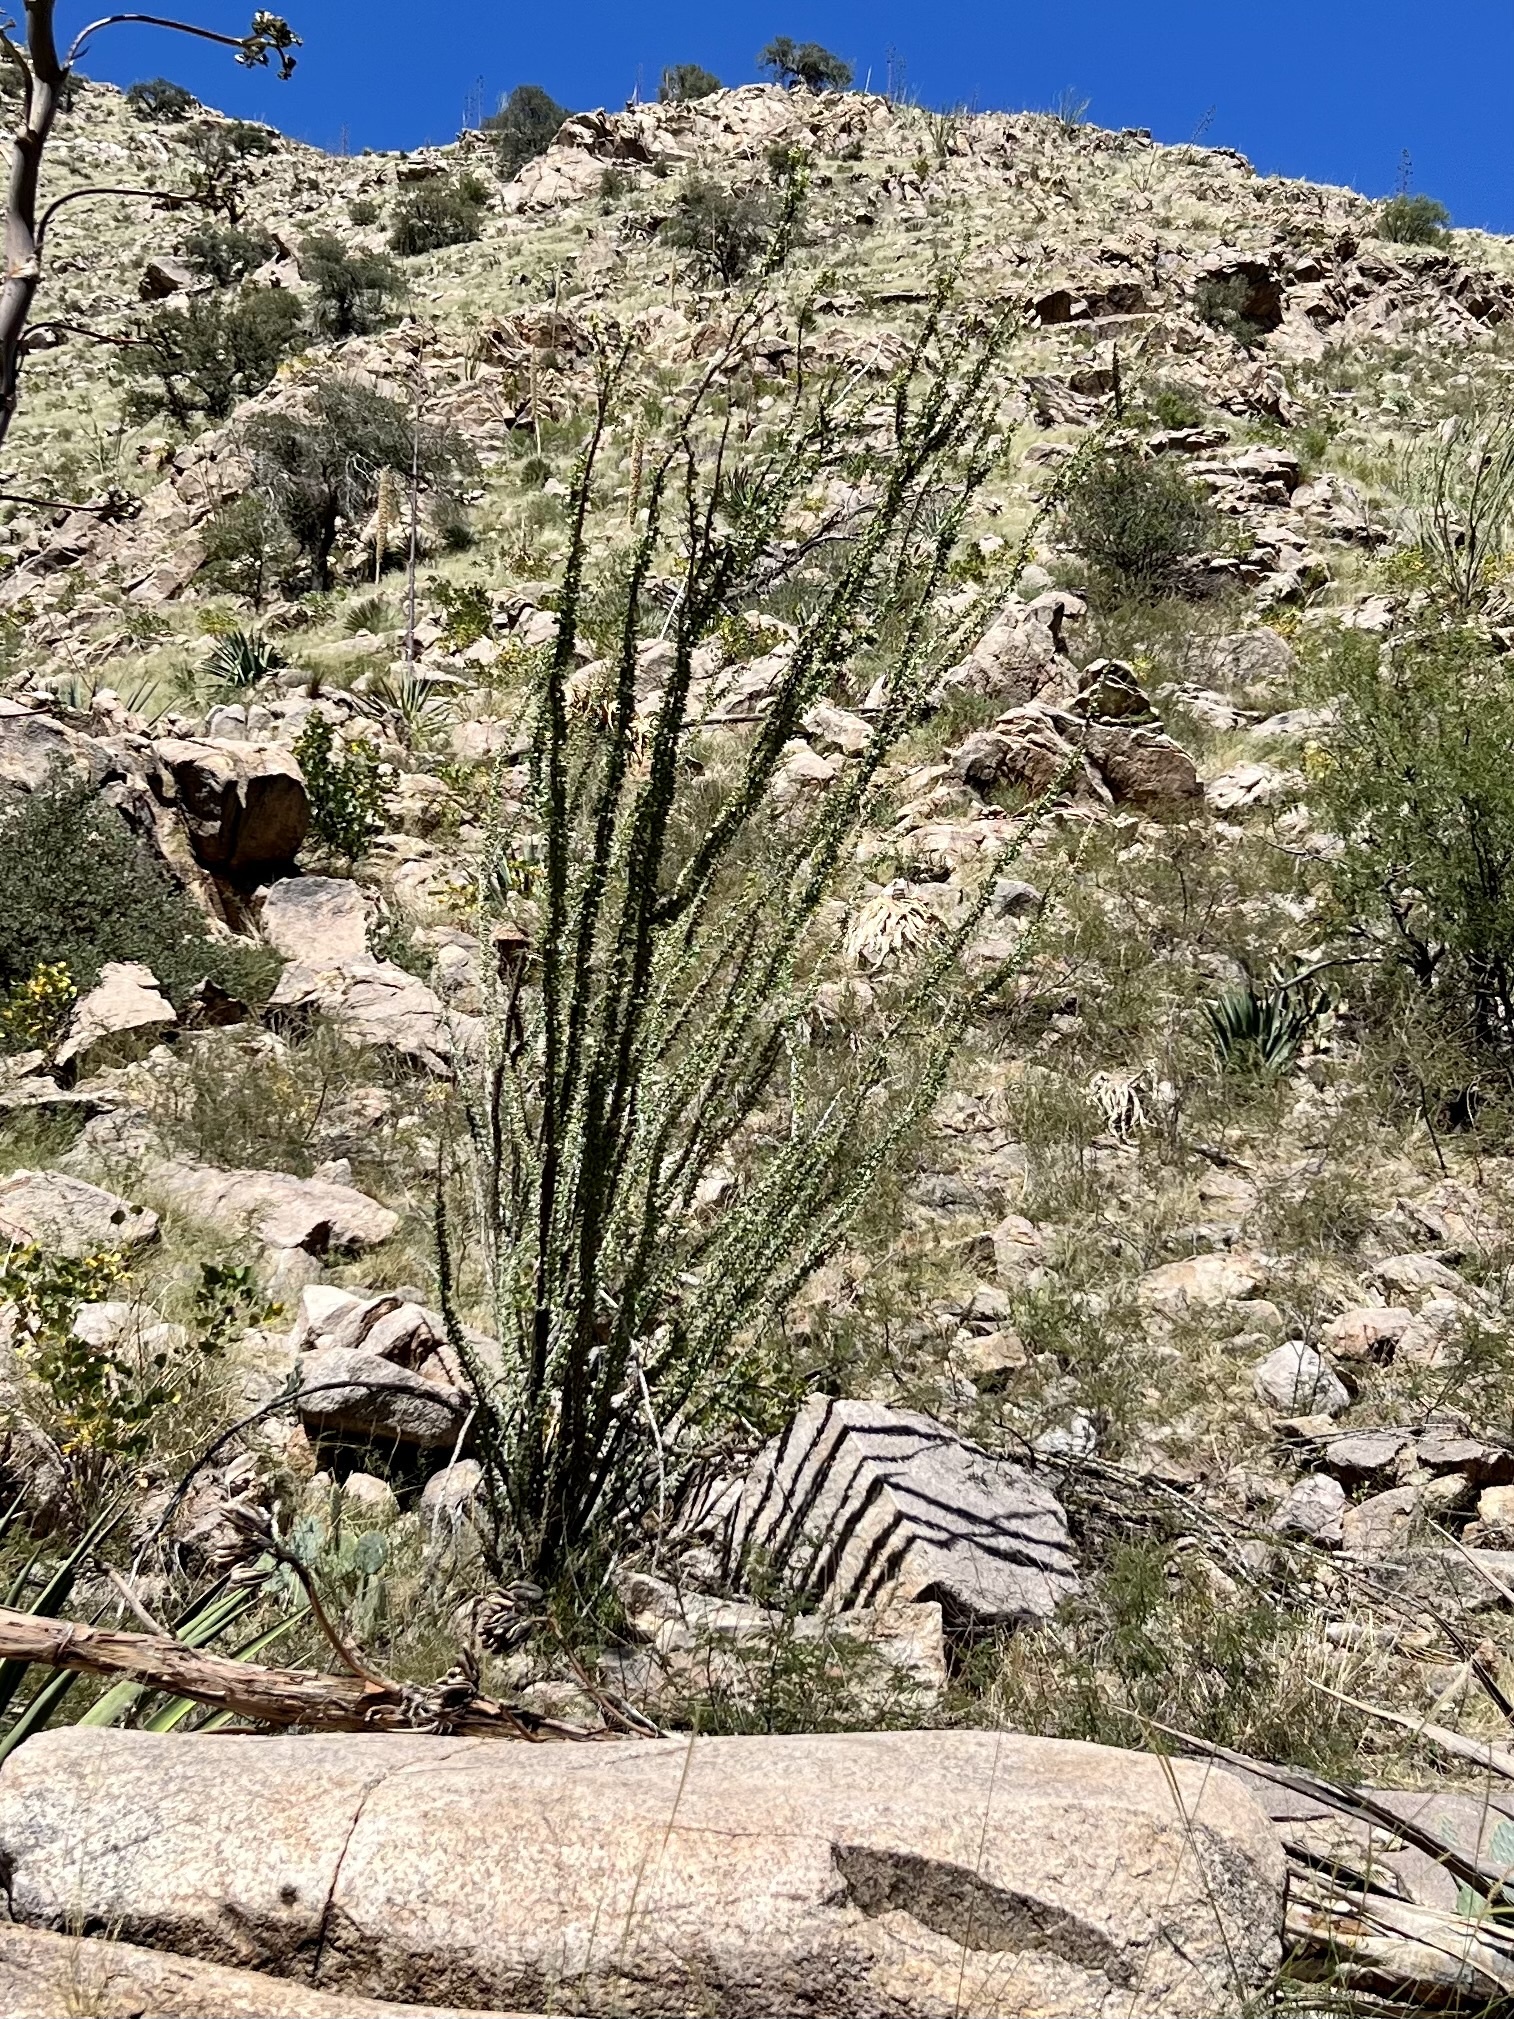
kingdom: Plantae
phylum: Tracheophyta
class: Magnoliopsida
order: Ericales
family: Fouquieriaceae
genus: Fouquieria
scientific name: Fouquieria splendens
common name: Vine-cactus
